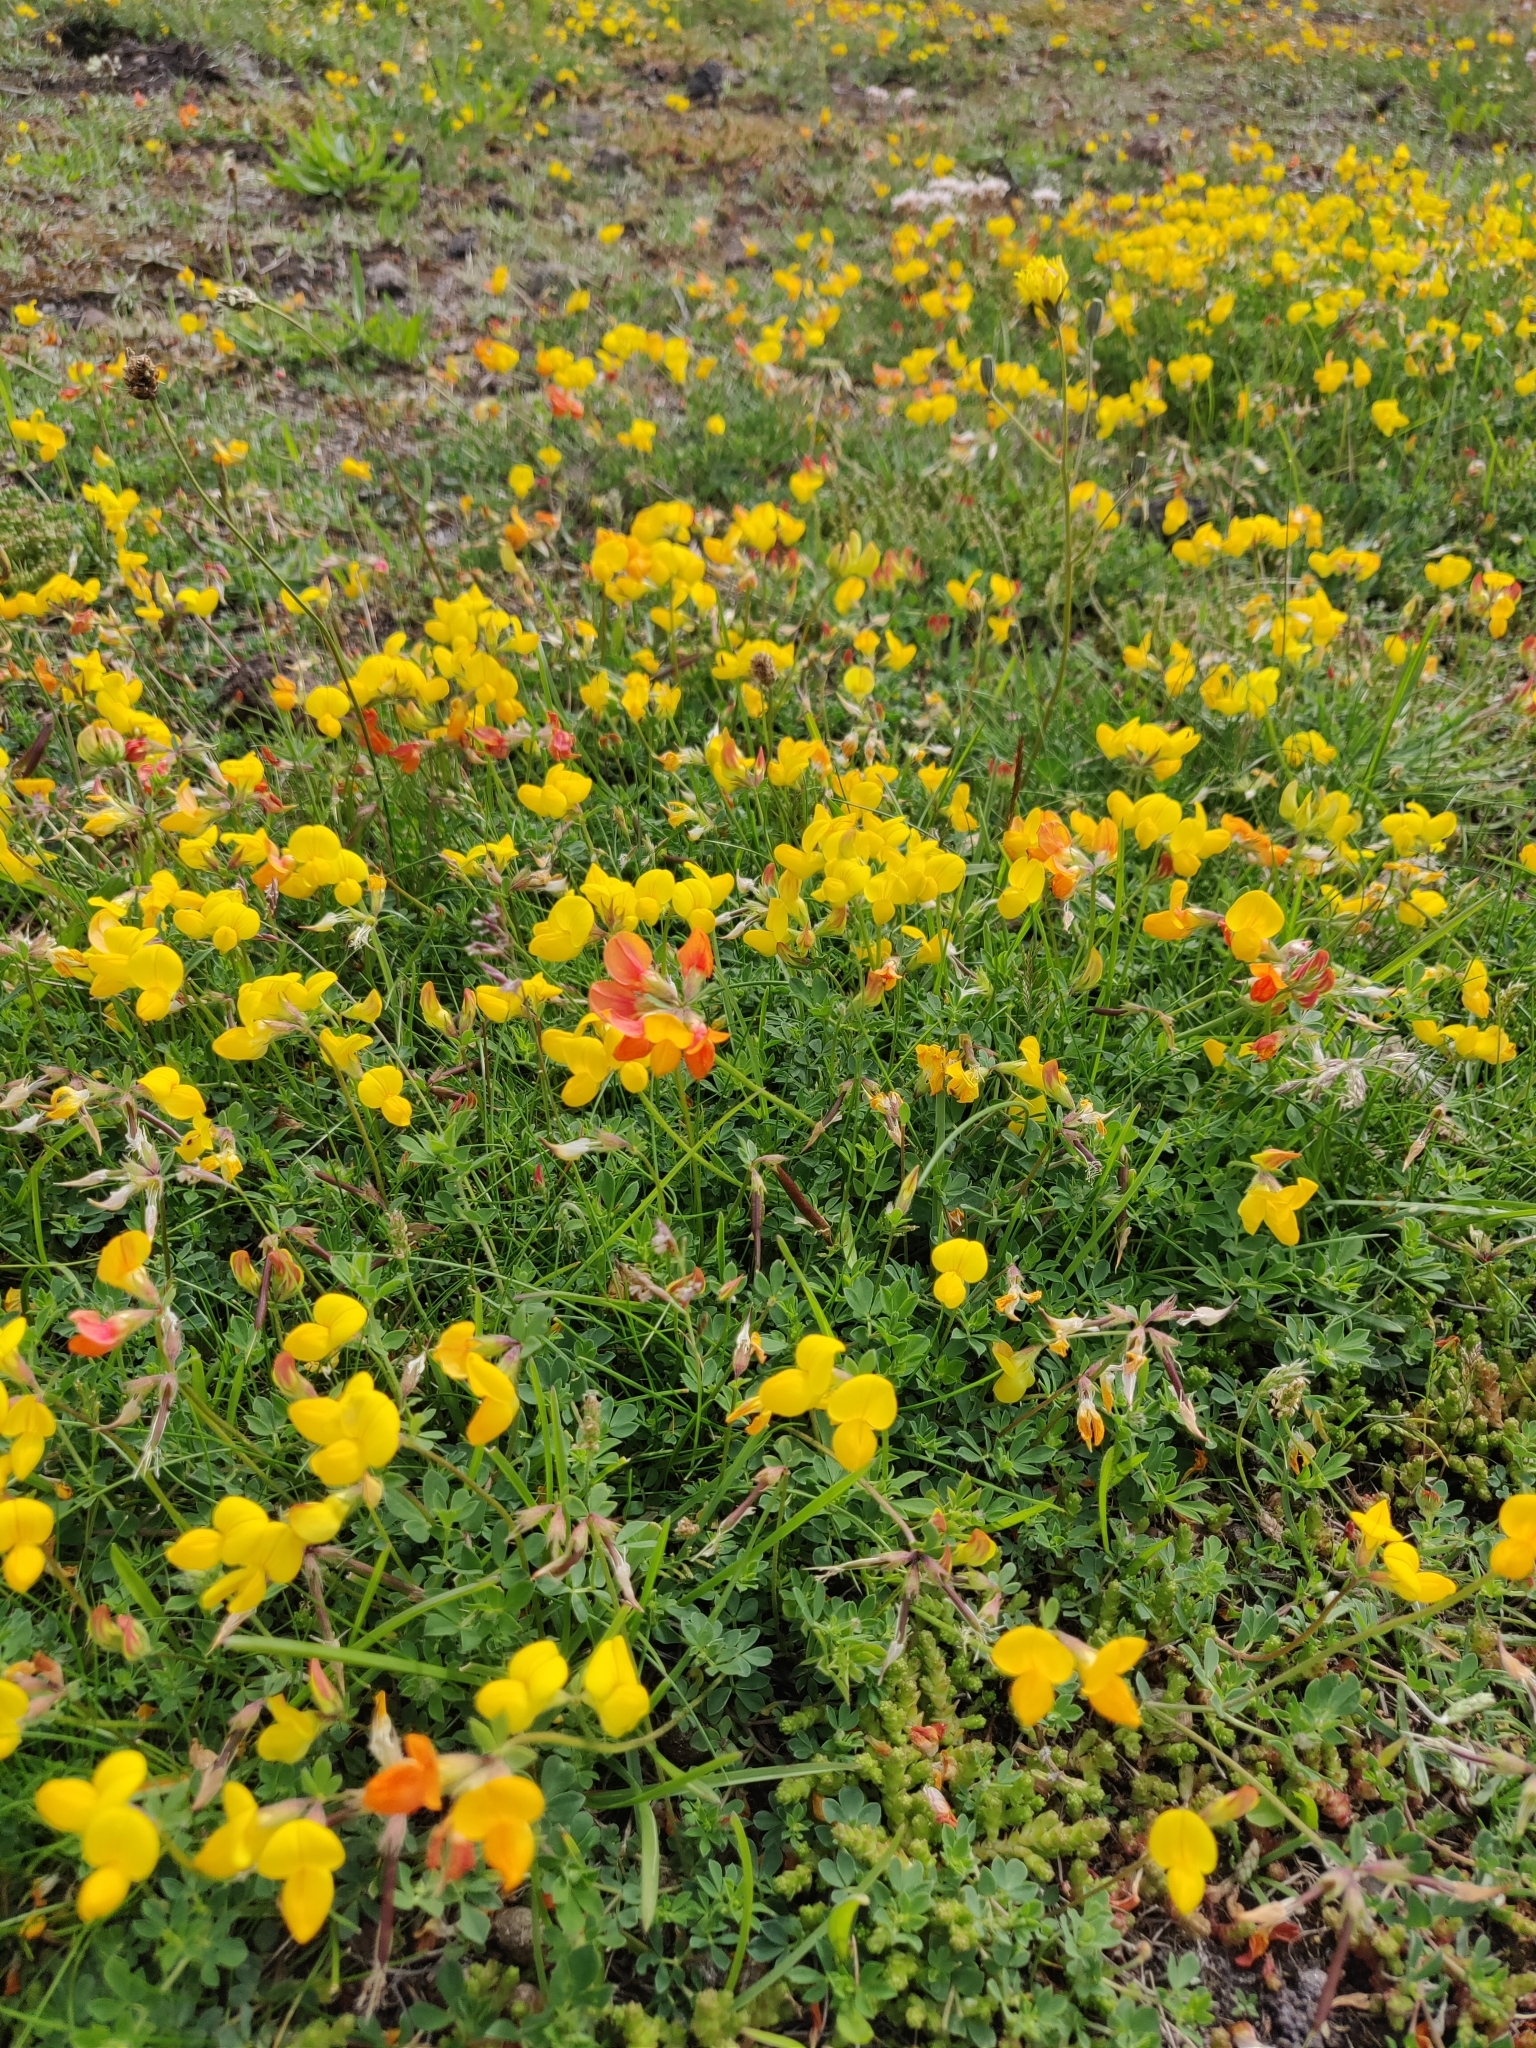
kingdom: Plantae
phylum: Tracheophyta
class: Magnoliopsida
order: Fabales
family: Fabaceae
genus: Lotus
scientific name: Lotus corniculatus
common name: Common bird's-foot-trefoil
